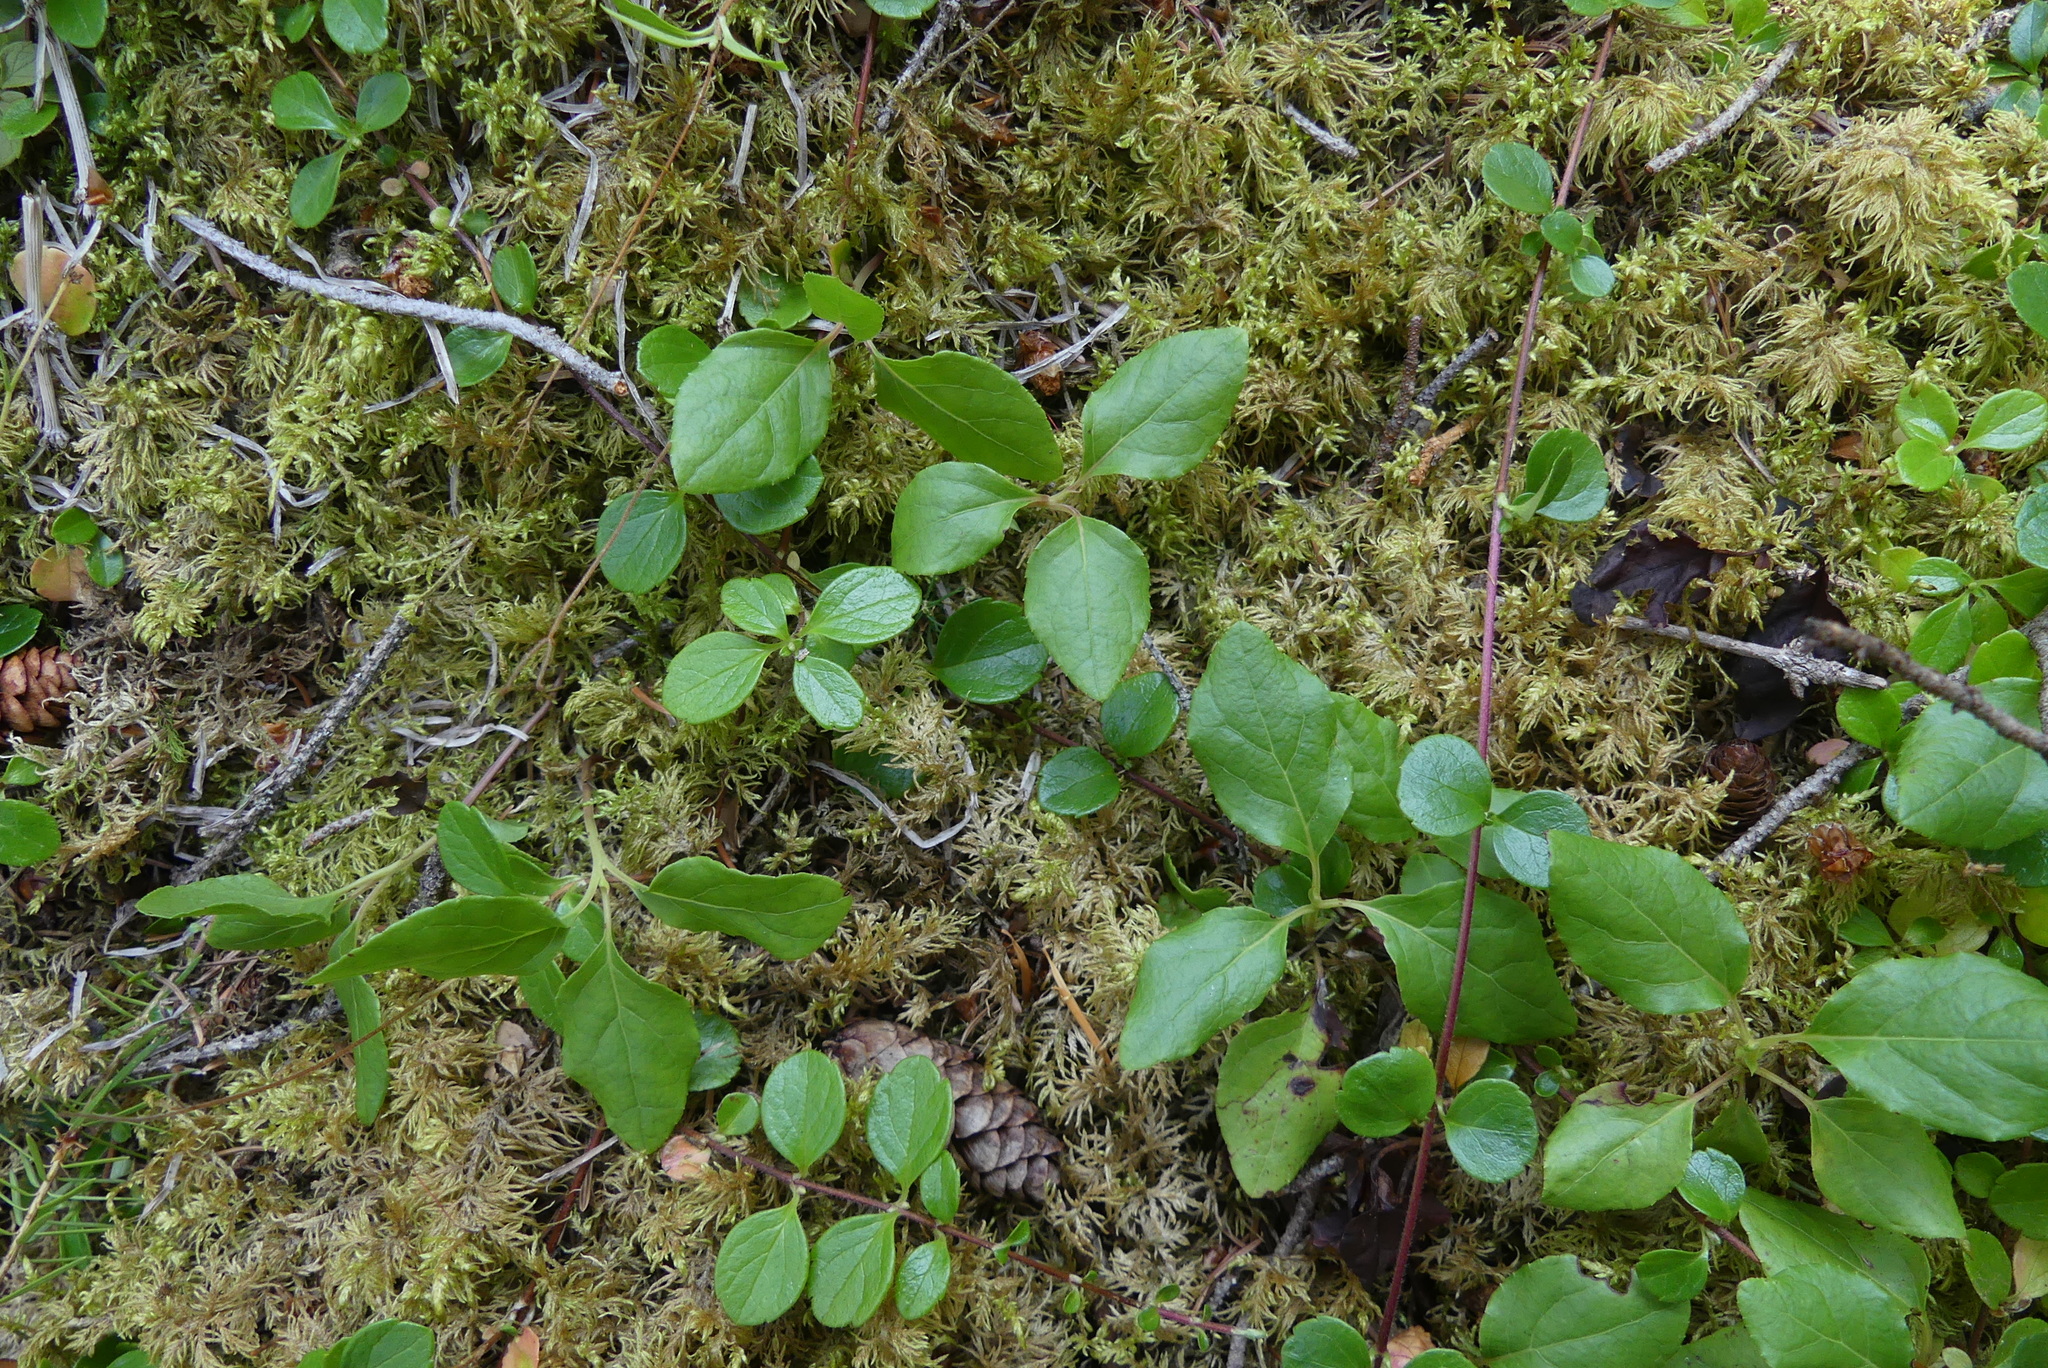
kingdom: Plantae
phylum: Bryophyta
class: Bryopsida
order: Hypnales
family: Hylocomiaceae
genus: Hylocomium
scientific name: Hylocomium splendens
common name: Stairstep moss
